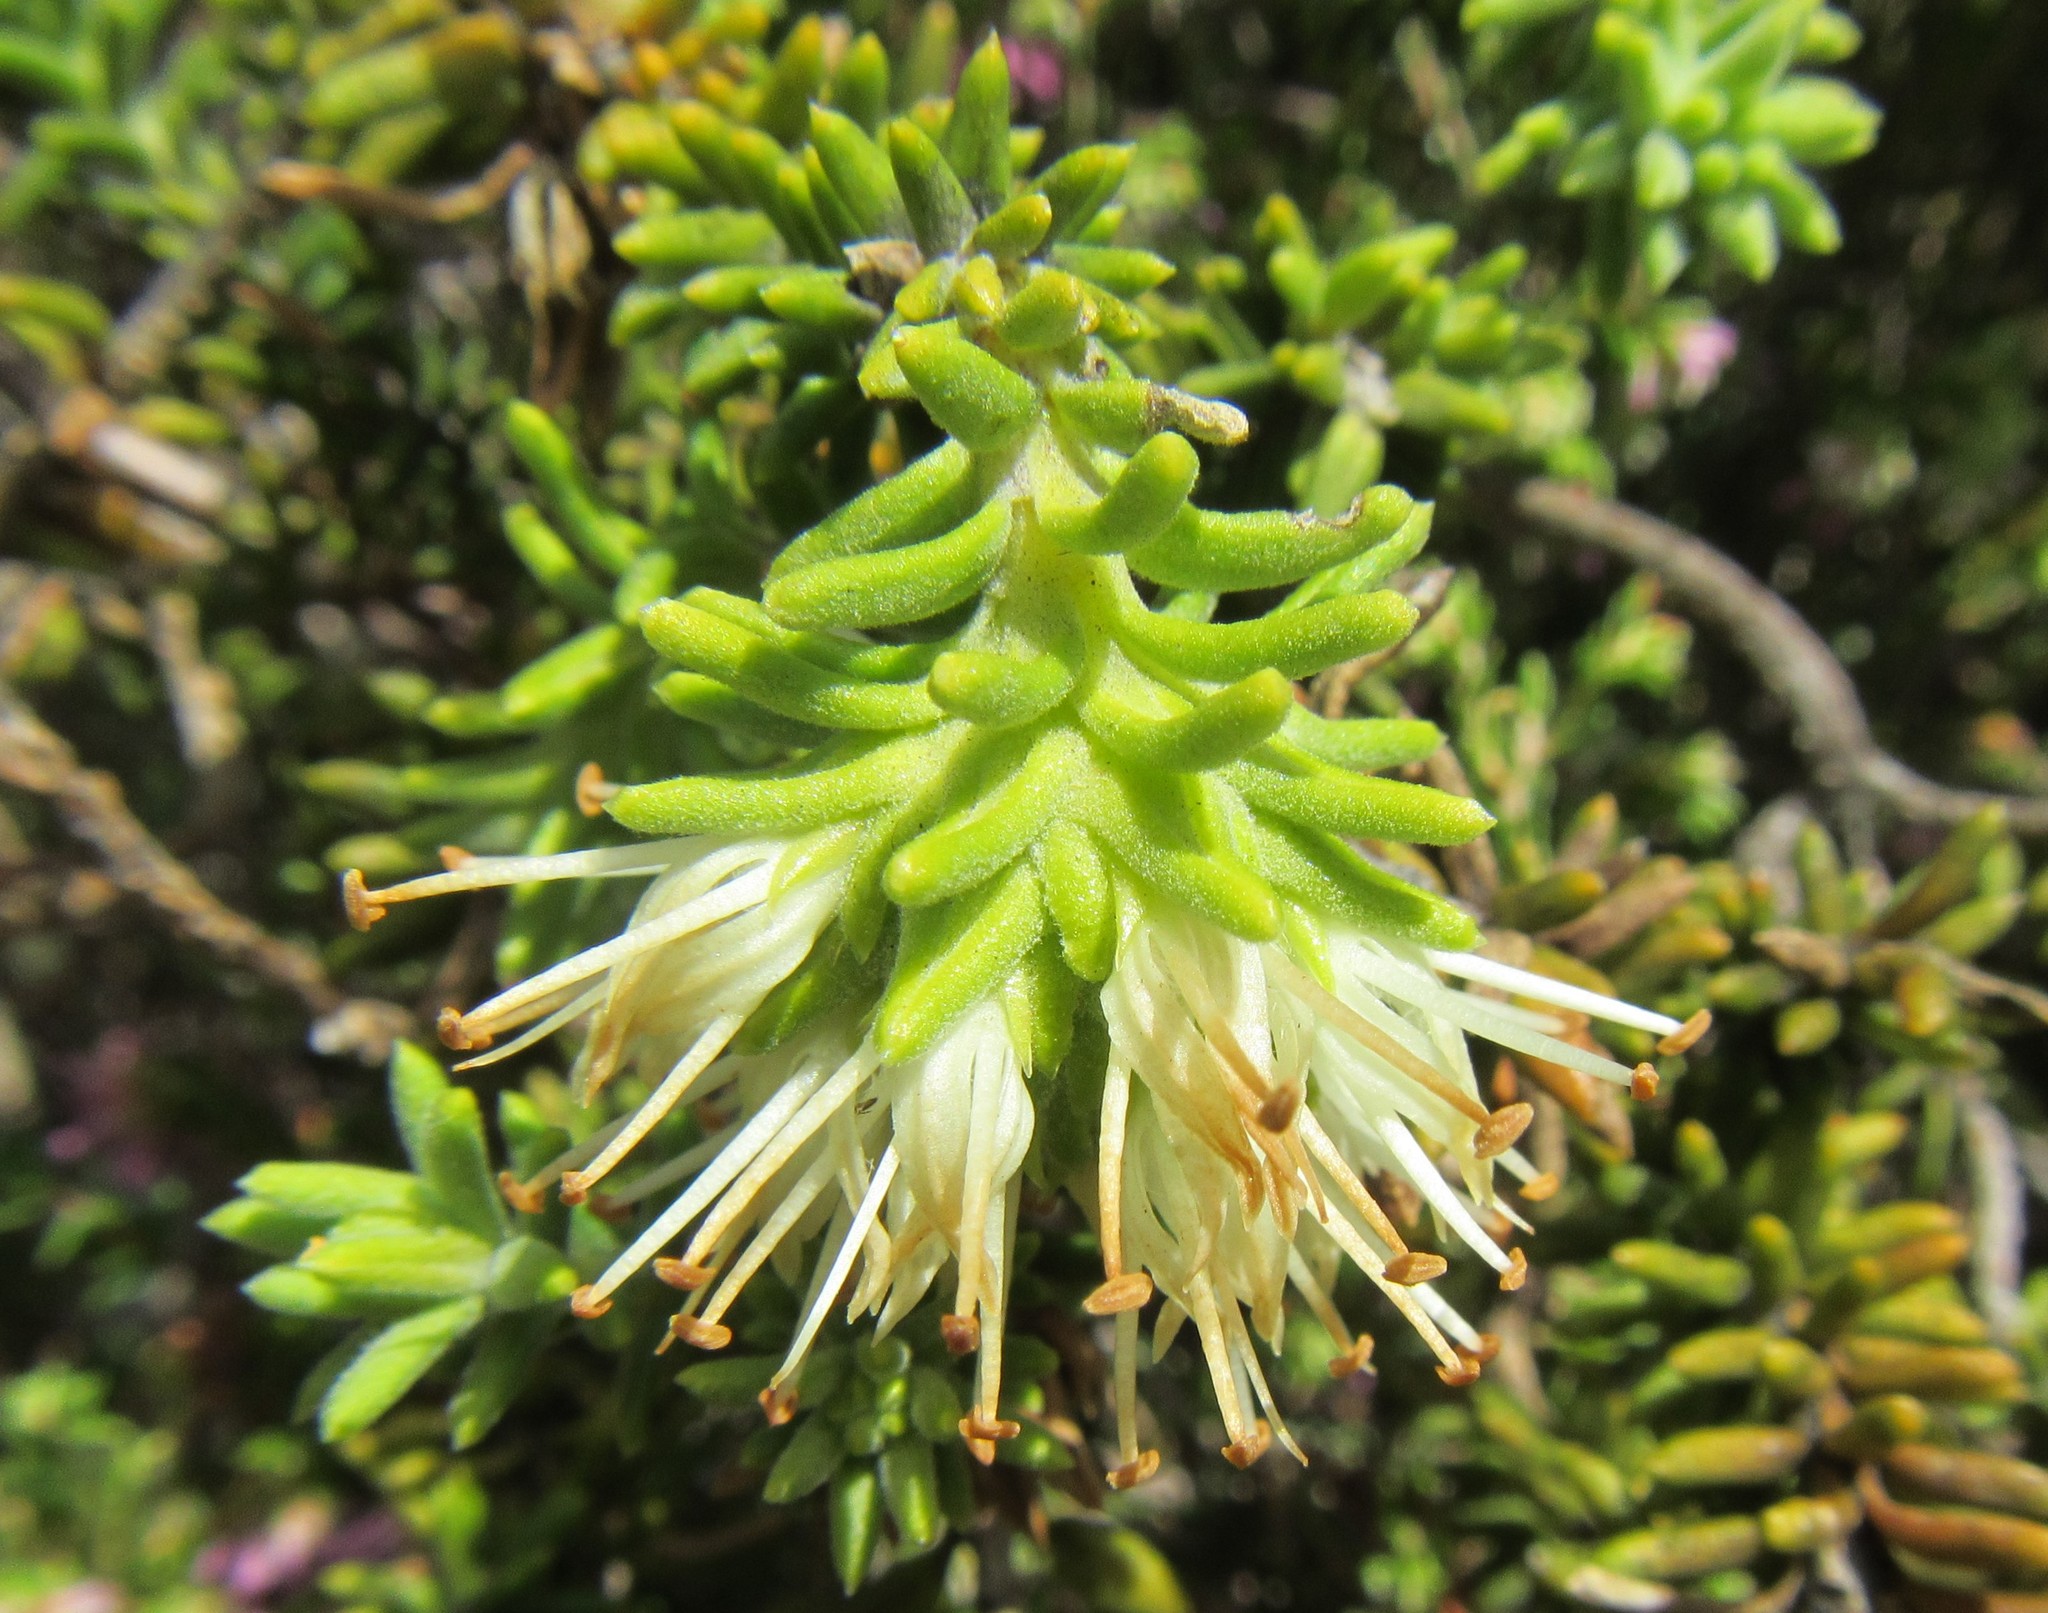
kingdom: Plantae
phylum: Tracheophyta
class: Magnoliopsida
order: Lamiales
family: Stilbaceae
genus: Campylostachys
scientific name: Campylostachys cernua
